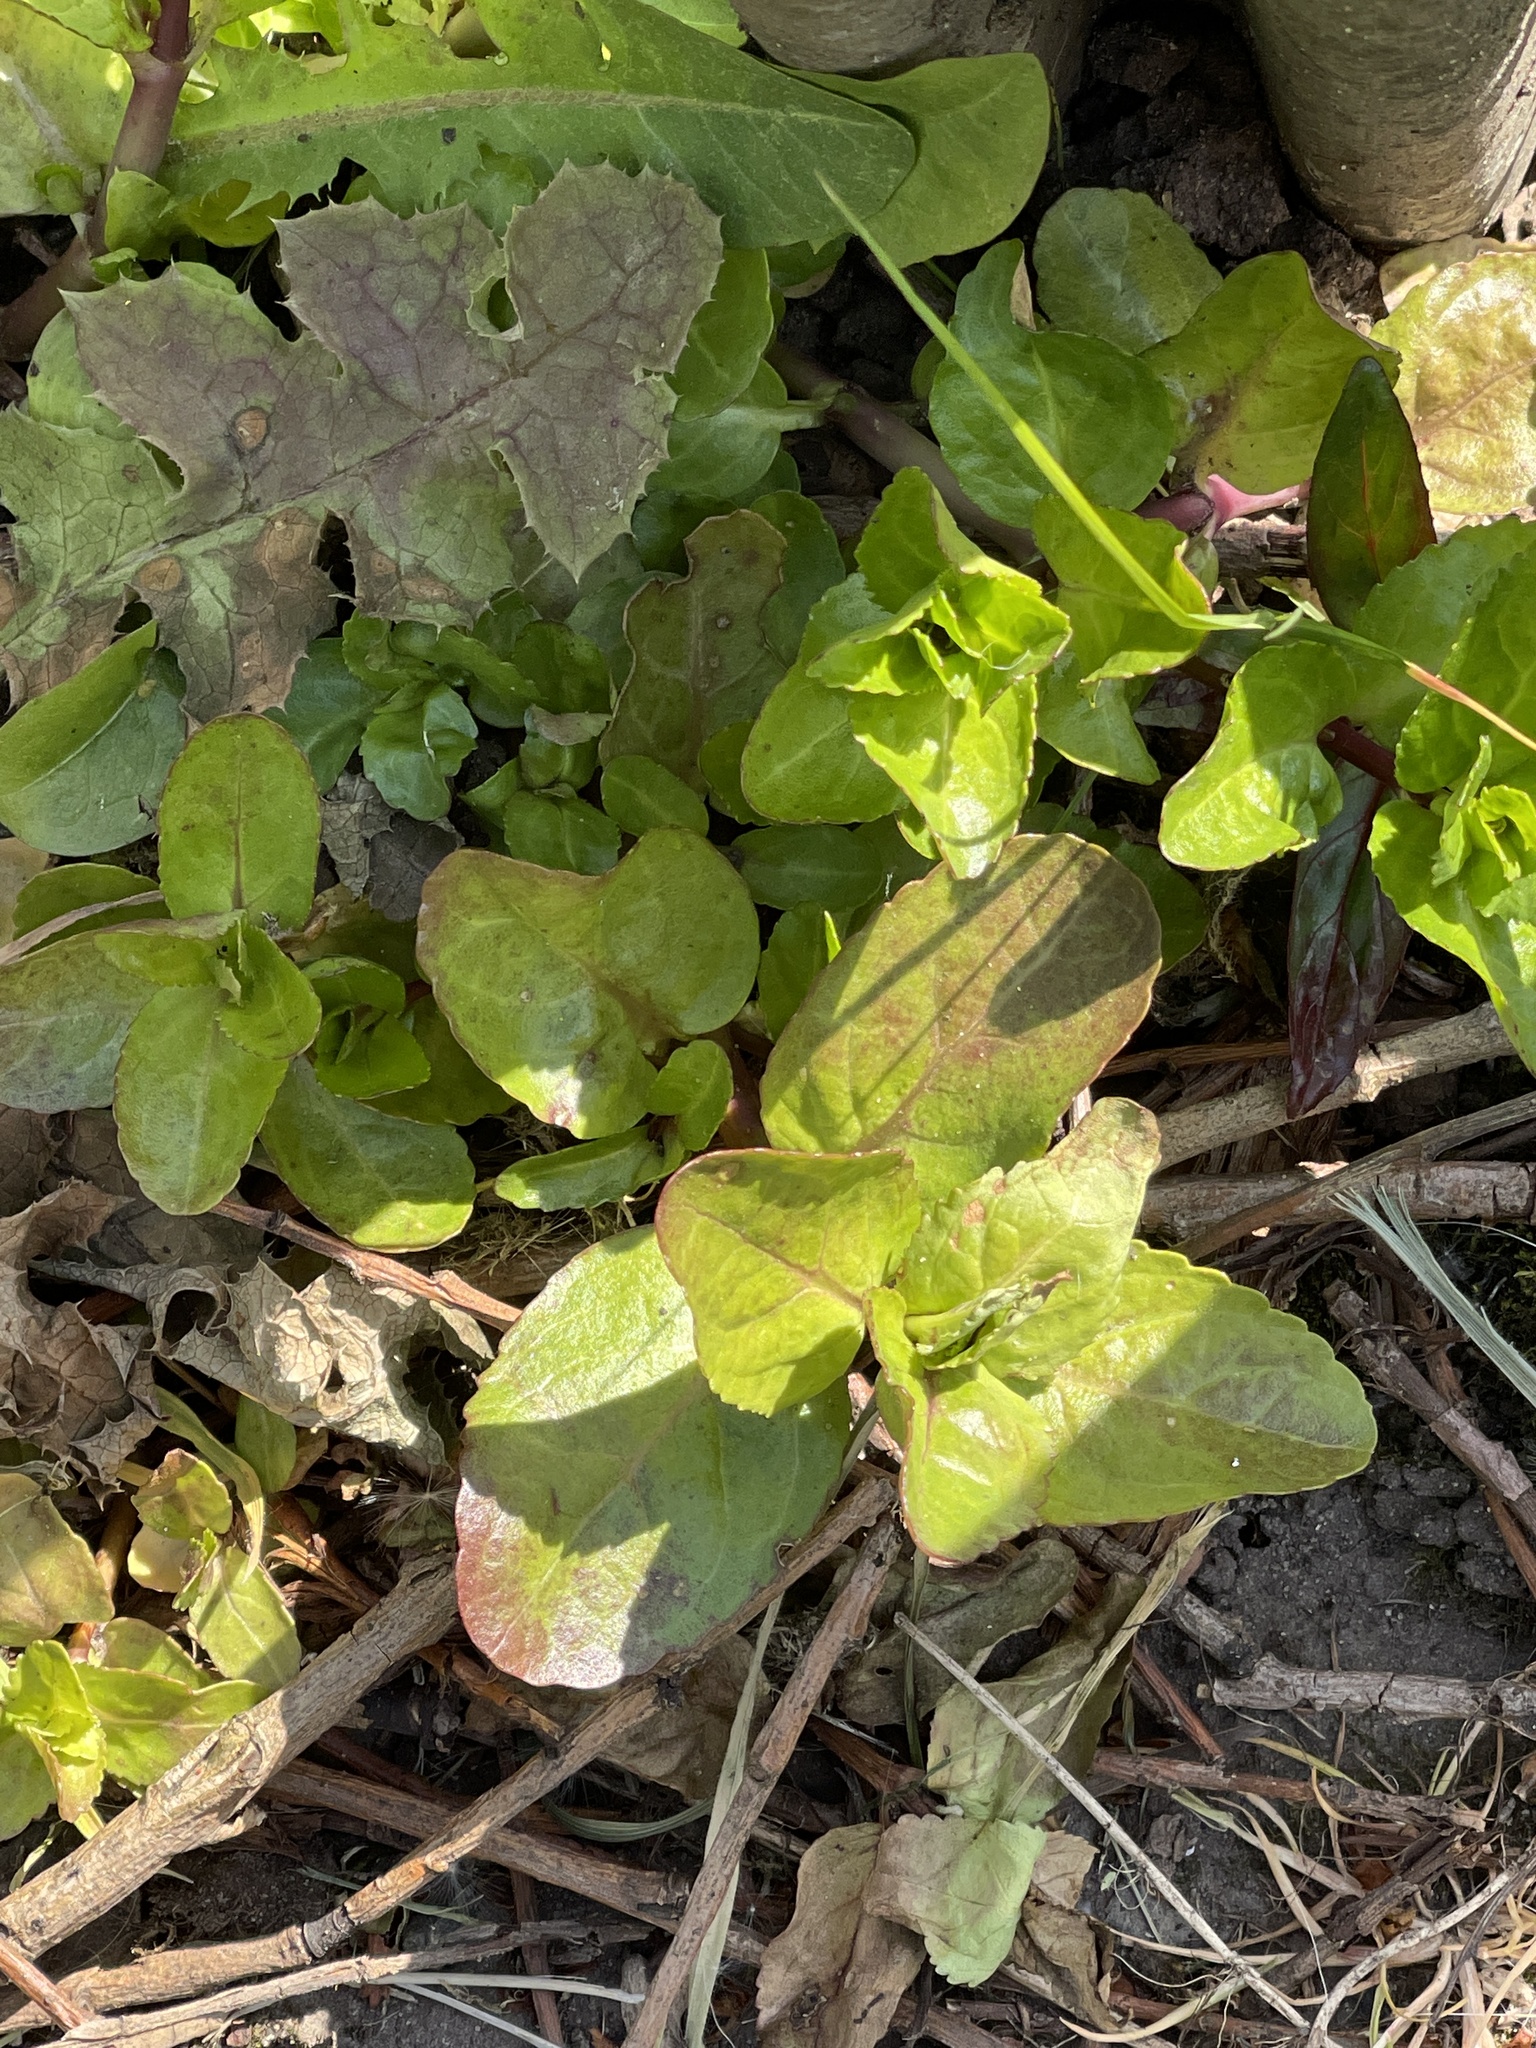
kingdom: Plantae
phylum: Tracheophyta
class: Magnoliopsida
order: Lamiales
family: Plantaginaceae
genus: Veronica
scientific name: Veronica beccabunga
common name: Brooklime
